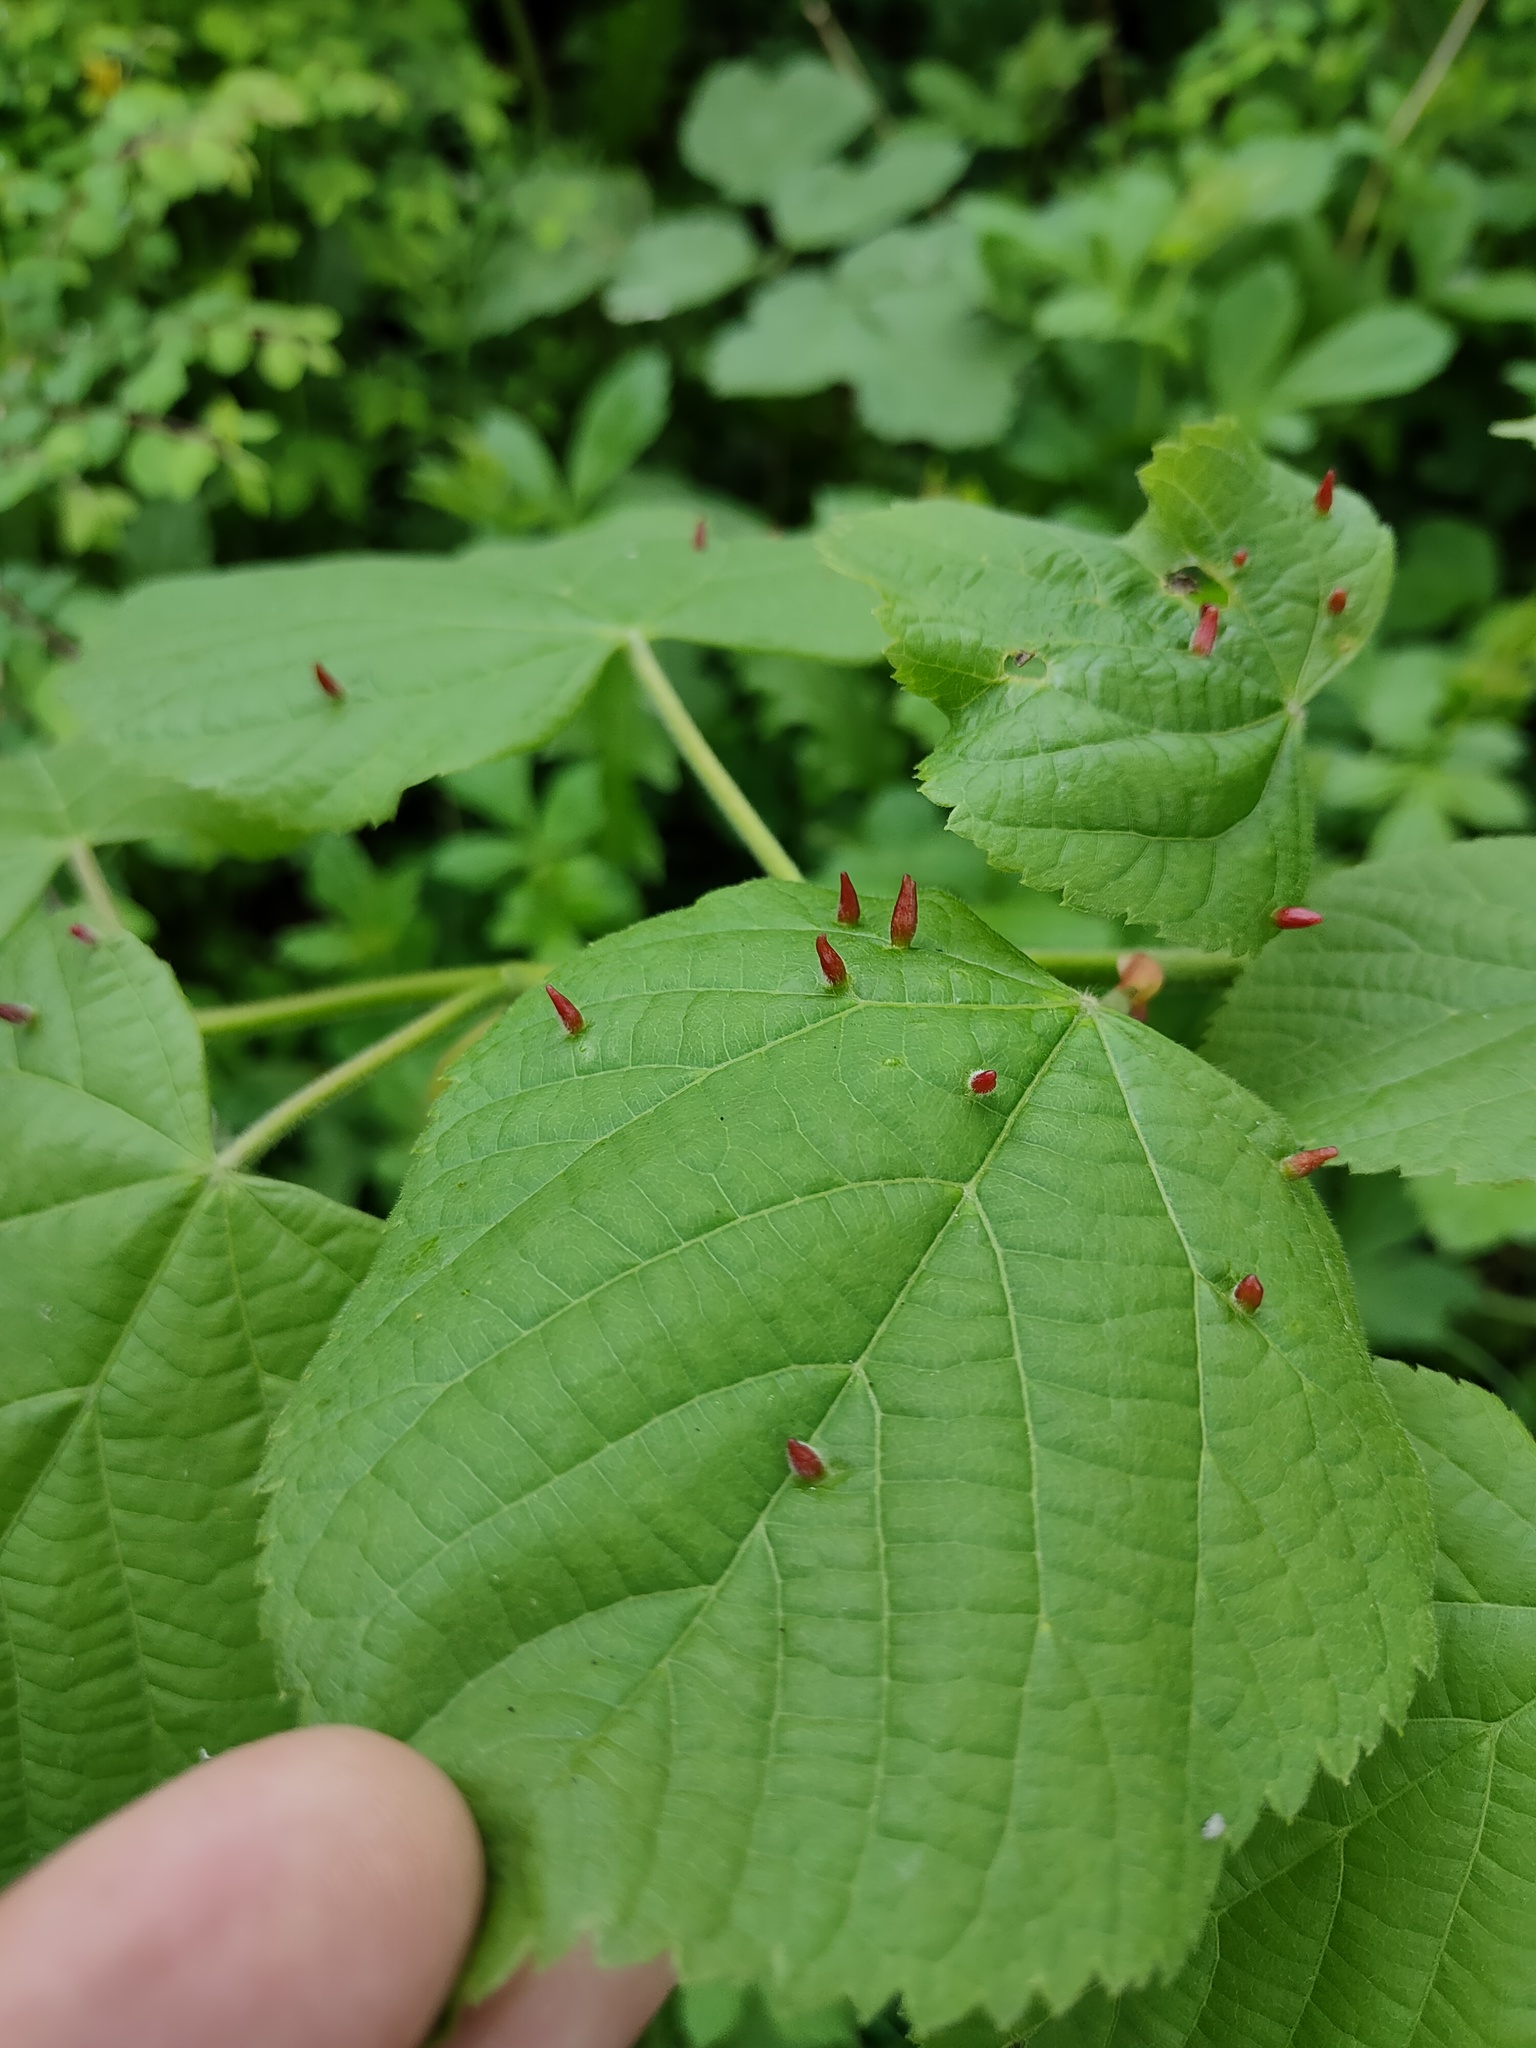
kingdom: Animalia
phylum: Arthropoda
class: Arachnida
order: Trombidiformes
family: Eriophyidae
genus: Eriophyes
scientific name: Eriophyes tiliae
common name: Red nail gall mite
